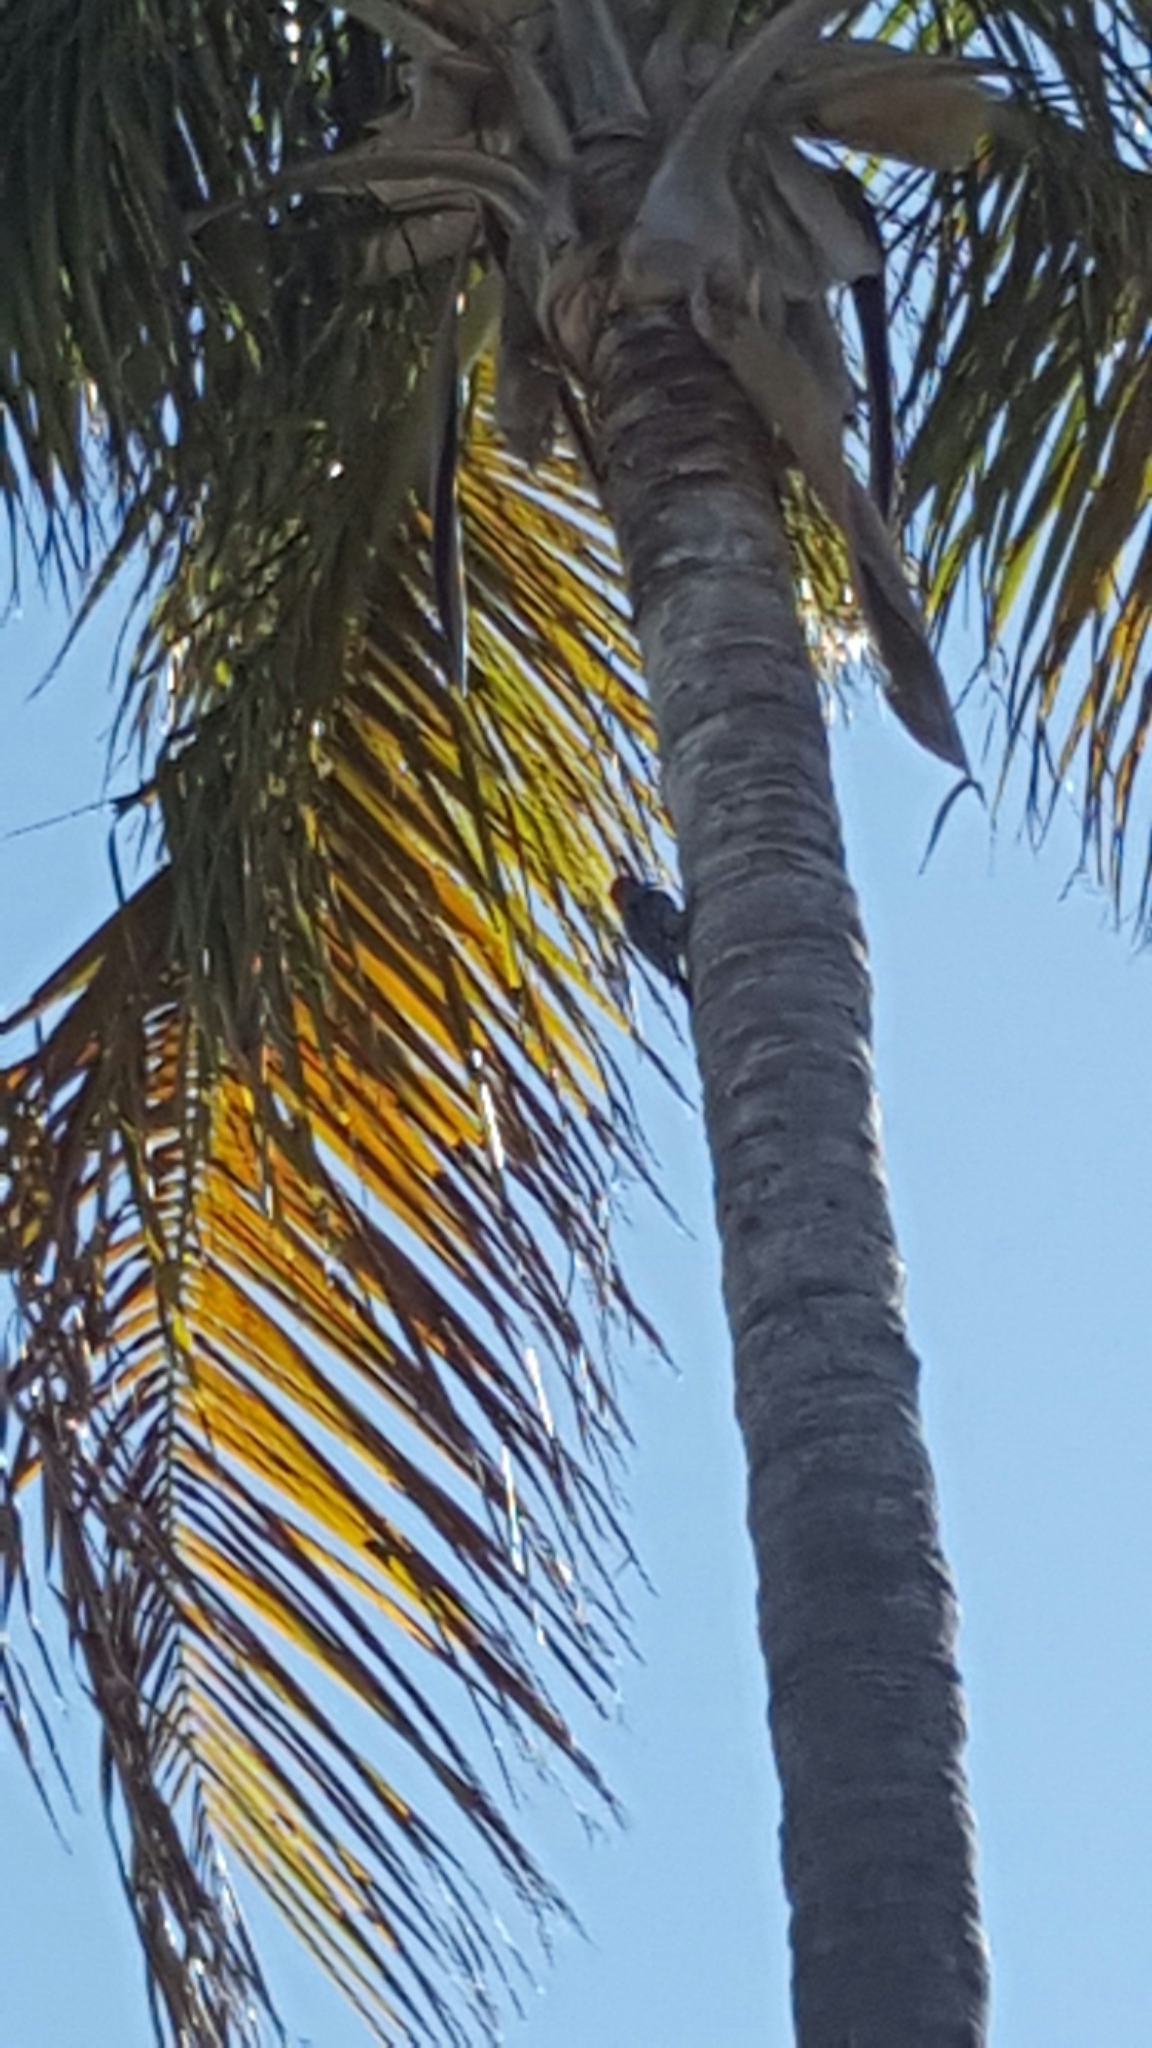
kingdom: Animalia
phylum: Chordata
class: Aves
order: Piciformes
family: Picidae
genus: Melanerpes
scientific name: Melanerpes carolinus
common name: Red-bellied woodpecker
